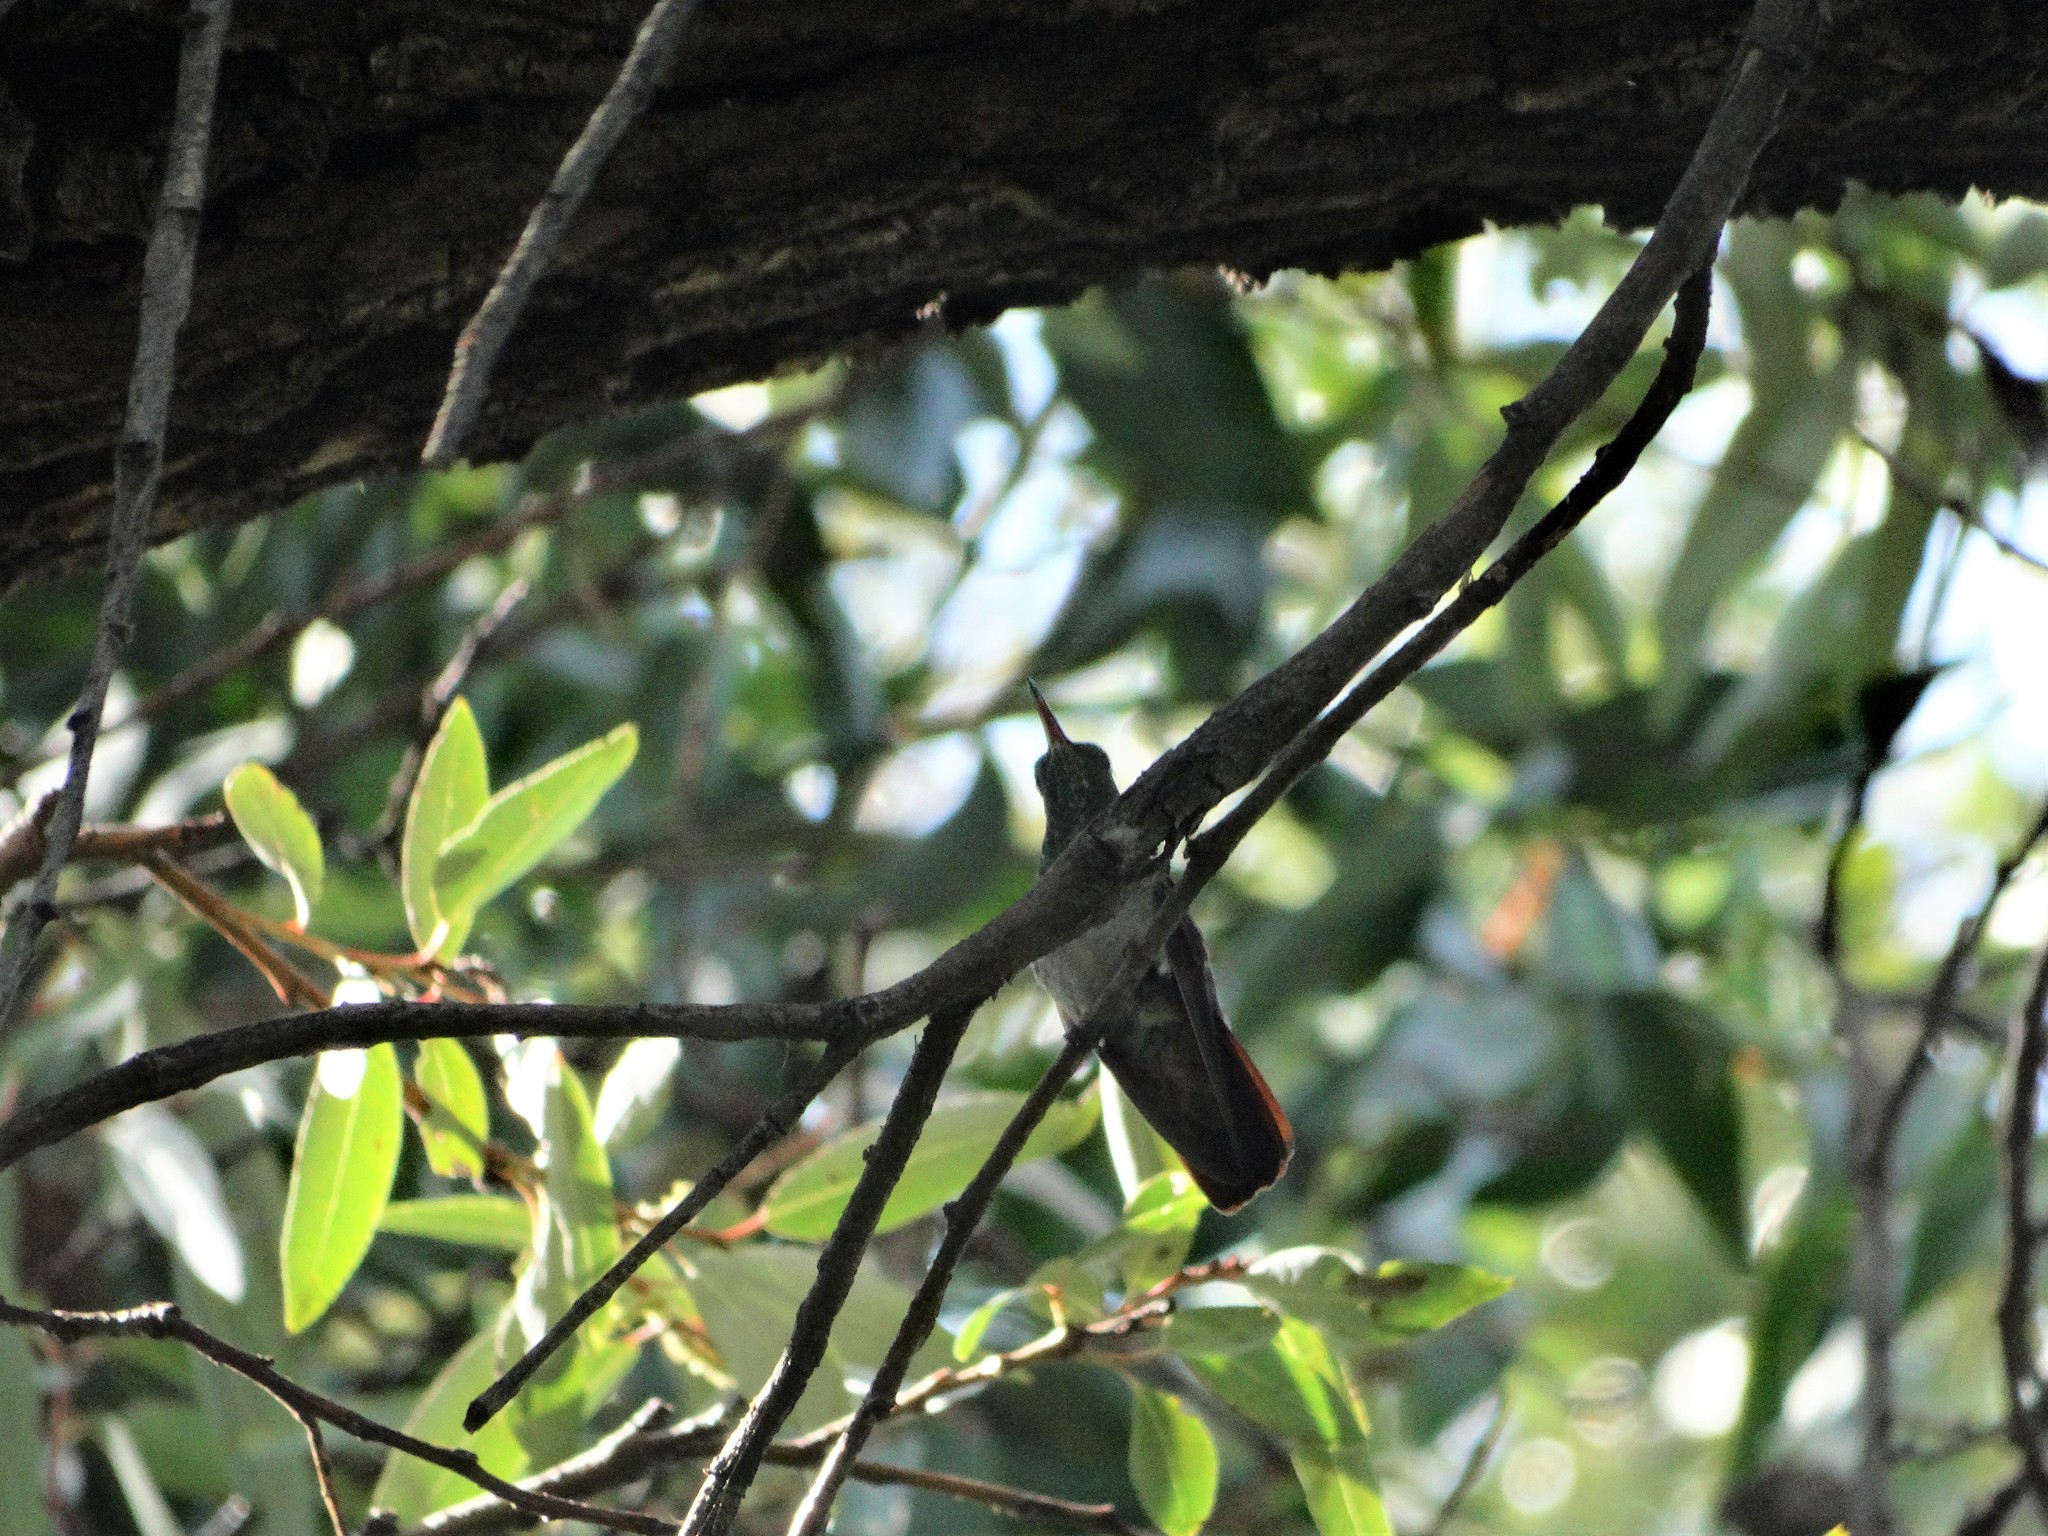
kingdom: Animalia
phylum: Chordata
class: Aves
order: Apodiformes
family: Trochilidae
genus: Saucerottia
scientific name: Saucerottia beryllina
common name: Berylline hummingbird
